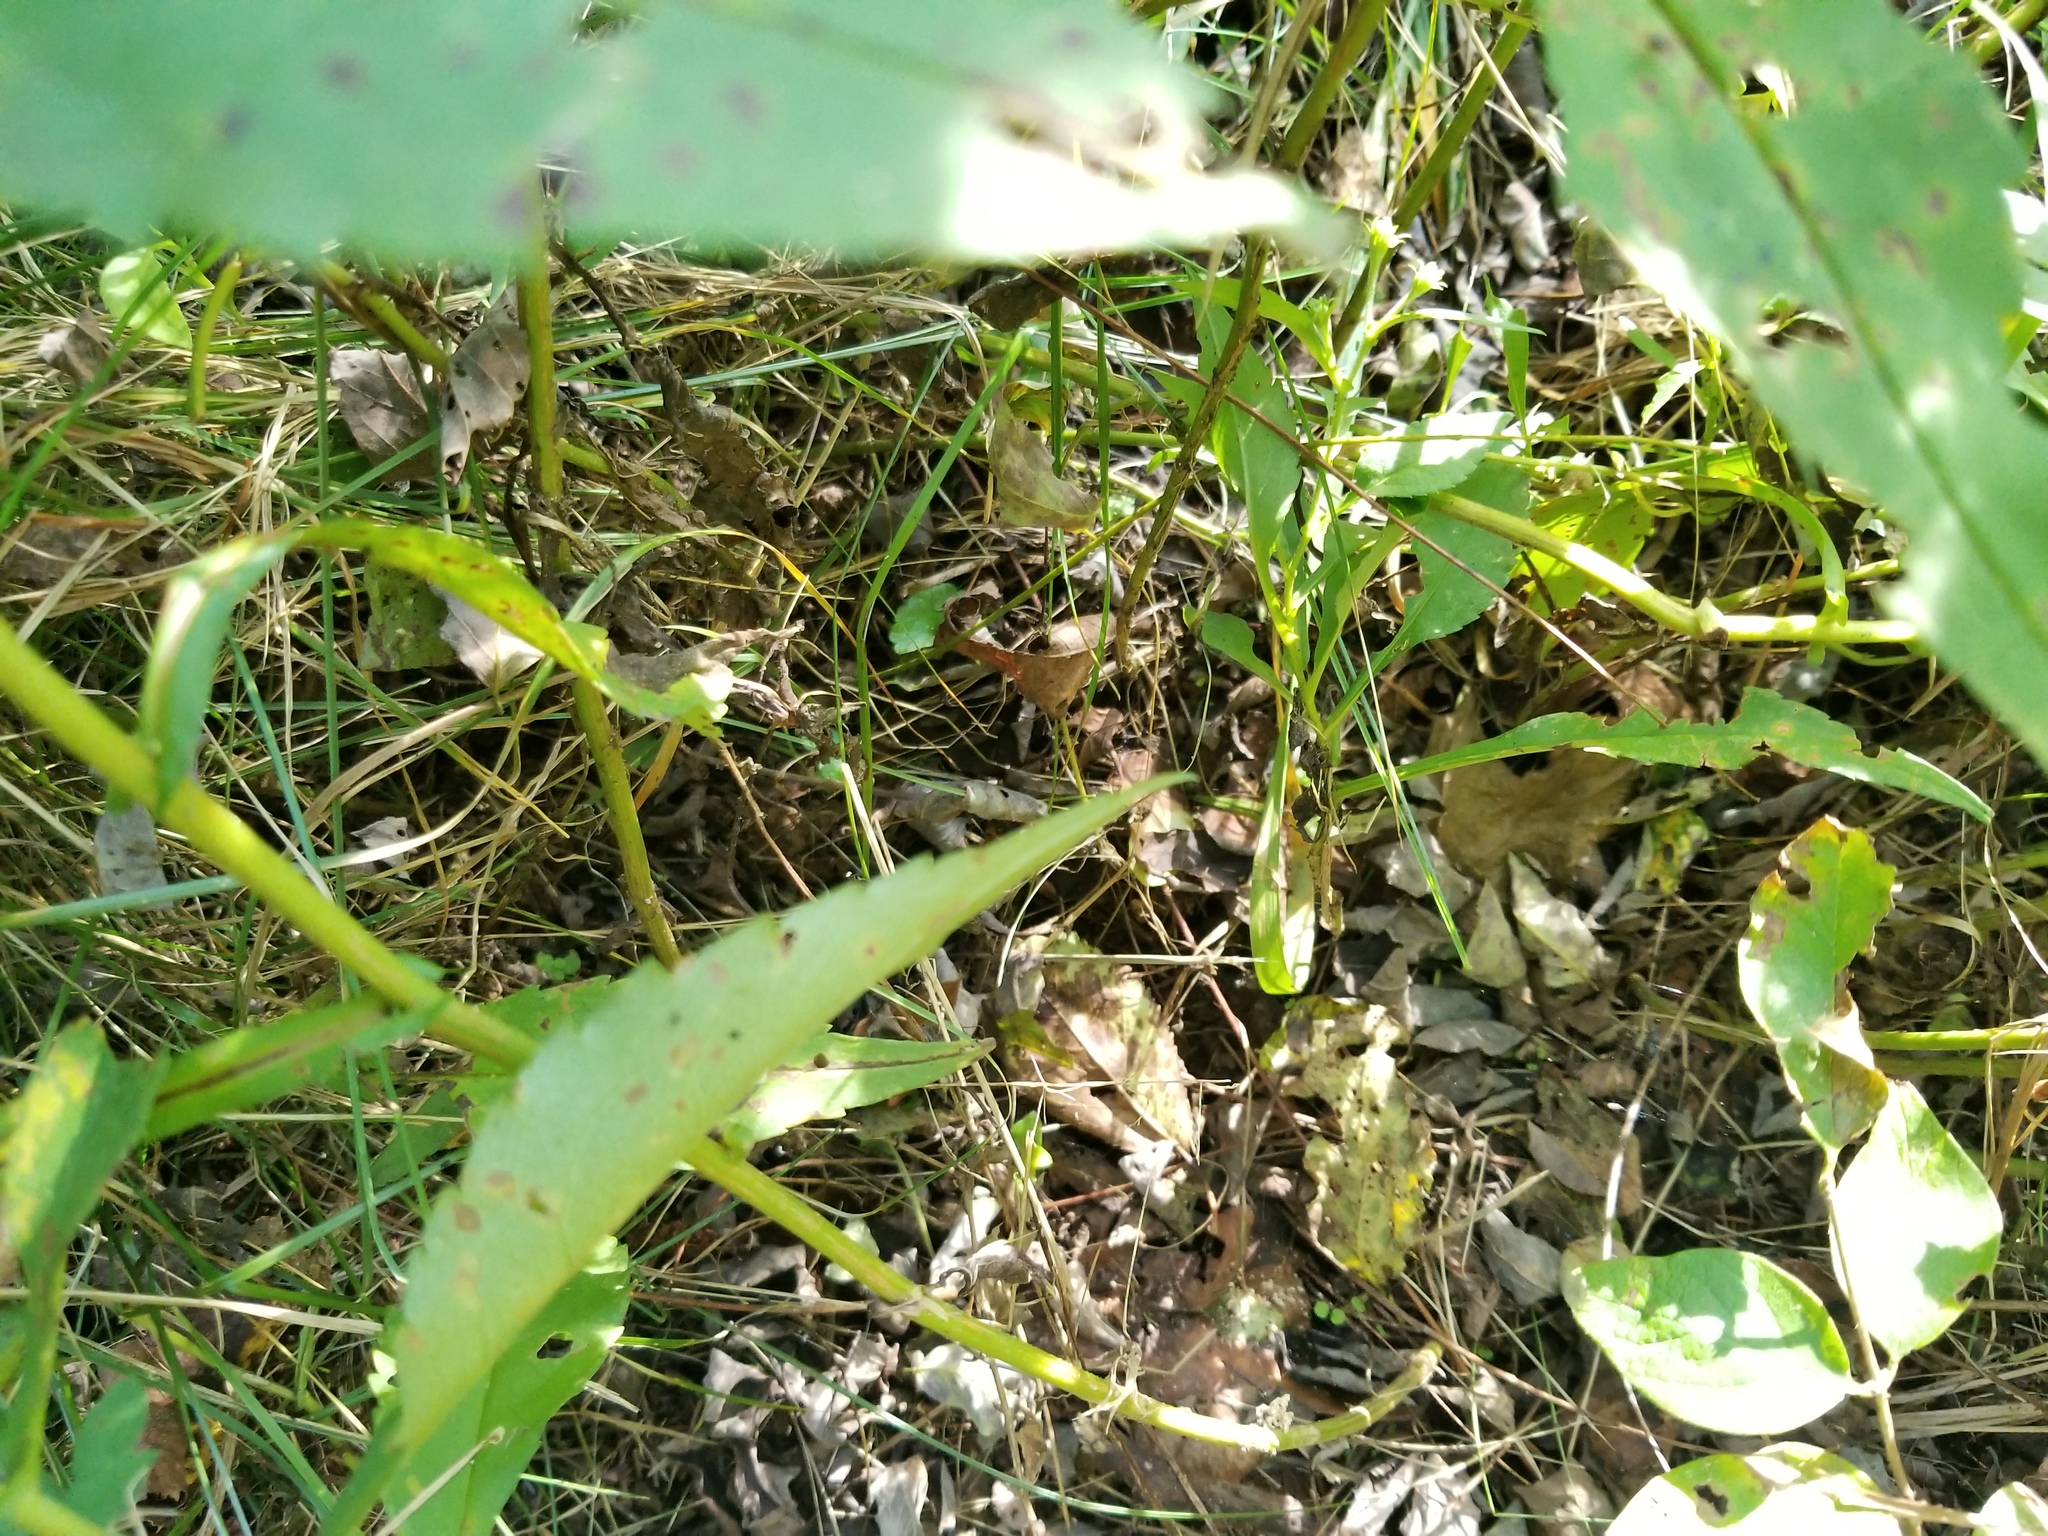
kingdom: Plantae
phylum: Tracheophyta
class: Magnoliopsida
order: Asterales
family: Asteraceae
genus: Symphyotrichum
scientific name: Symphyotrichum prenanthoides
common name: Crooked-stem aster
